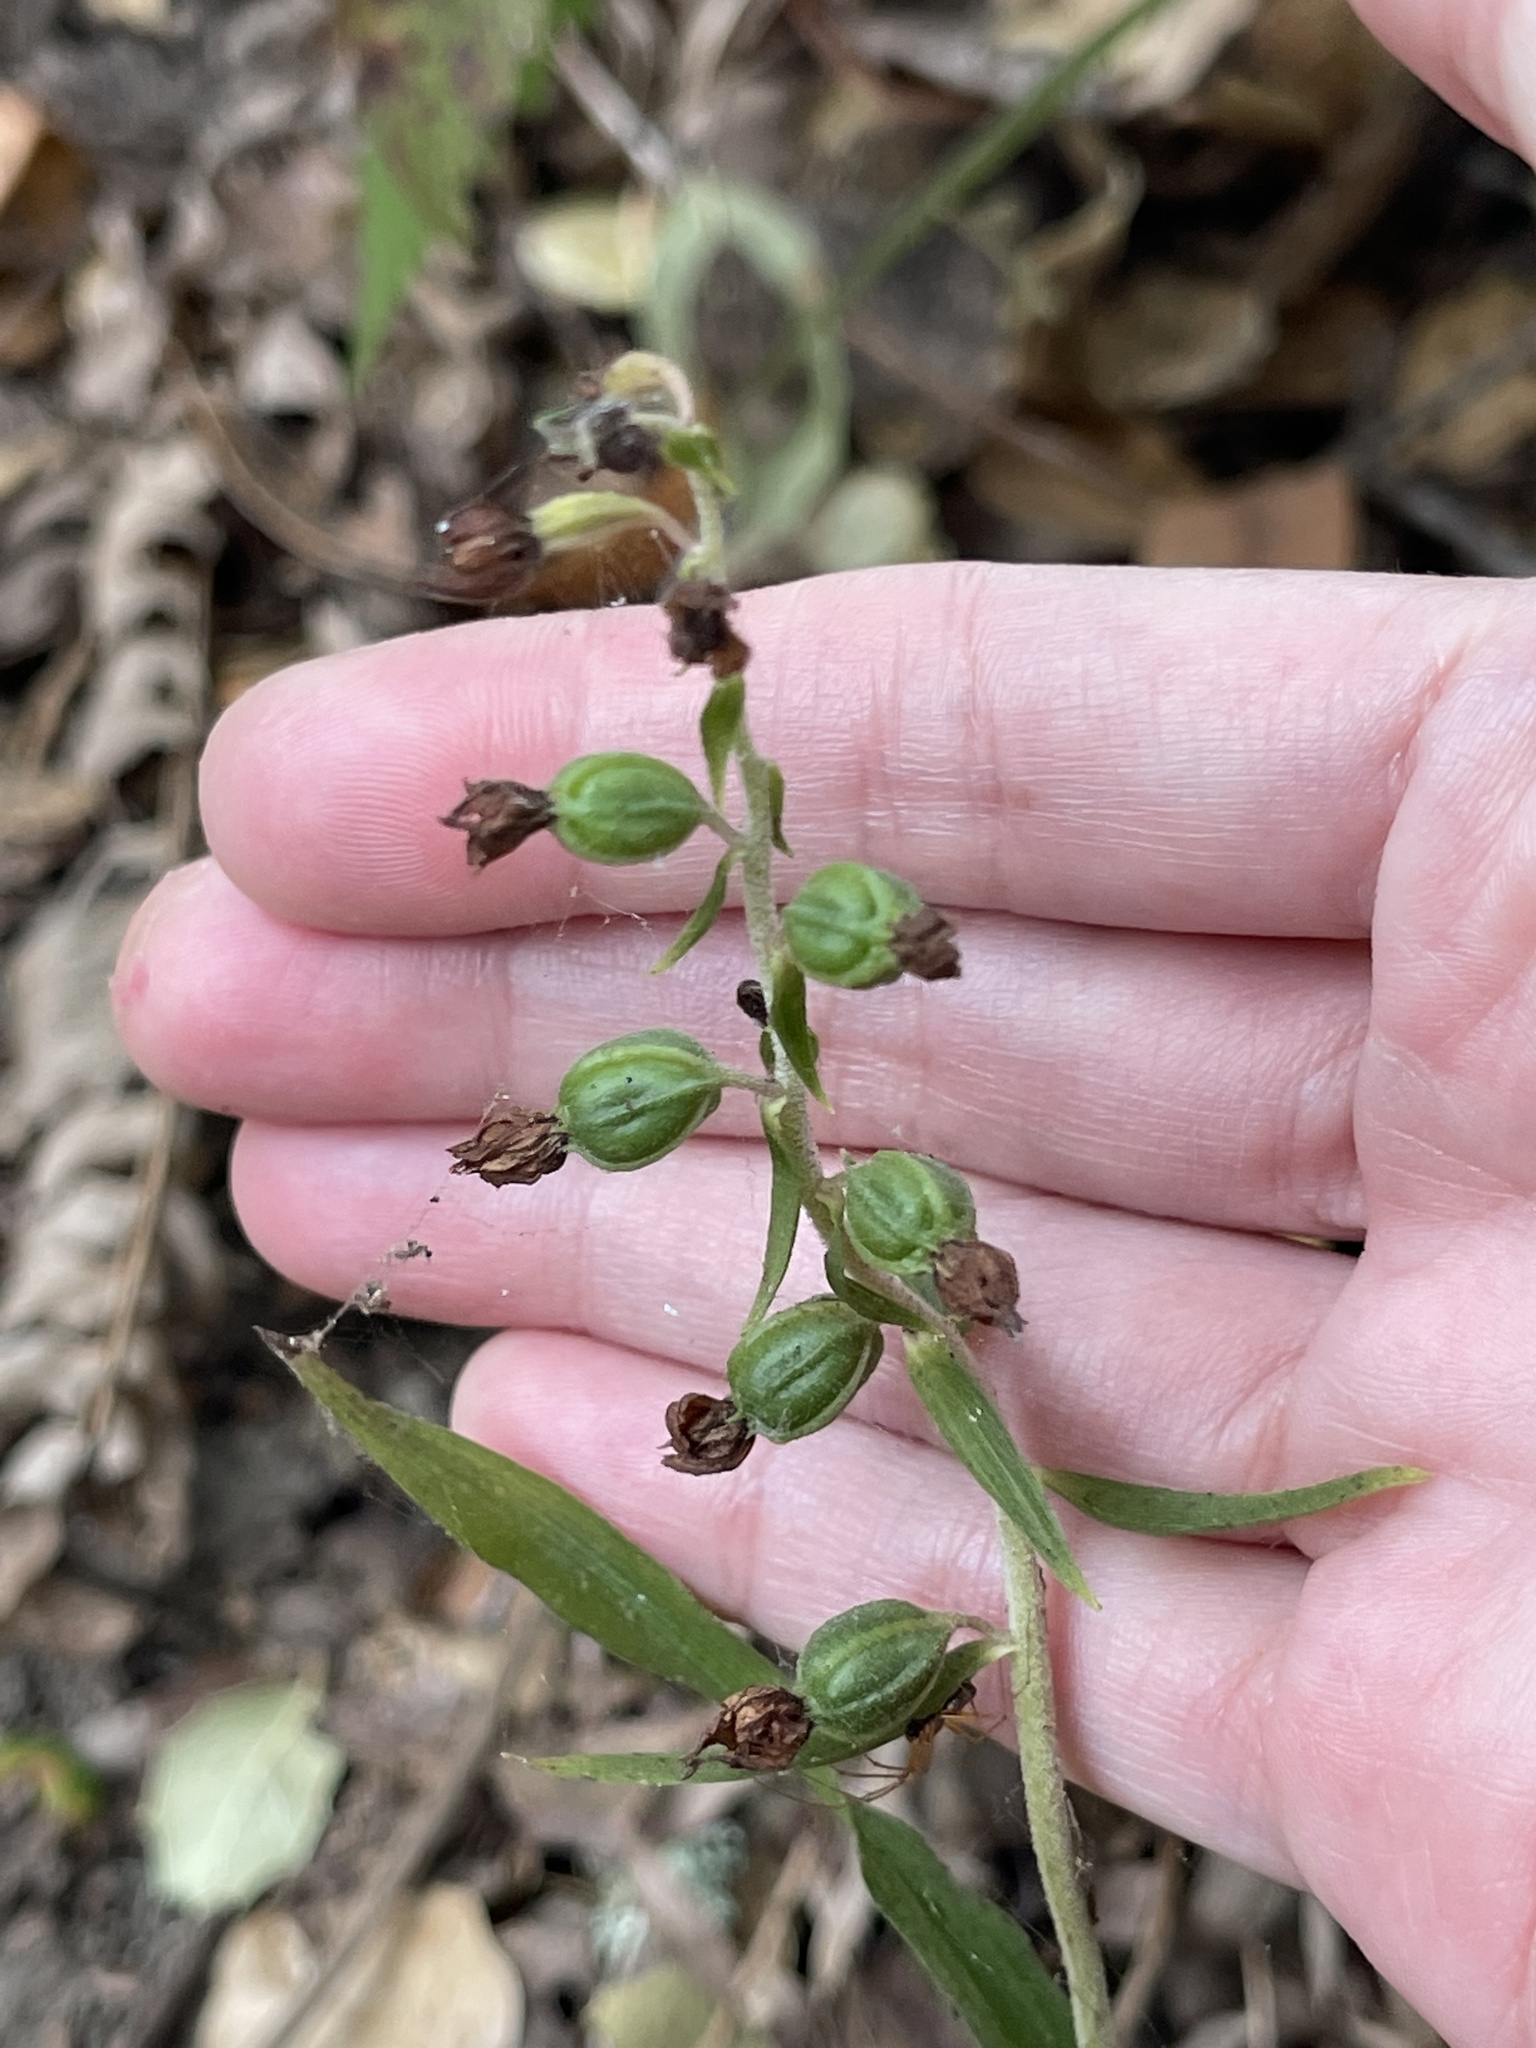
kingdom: Plantae
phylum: Tracheophyta
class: Liliopsida
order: Asparagales
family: Orchidaceae
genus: Epipactis
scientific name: Epipactis helleborine
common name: Broad-leaved helleborine
